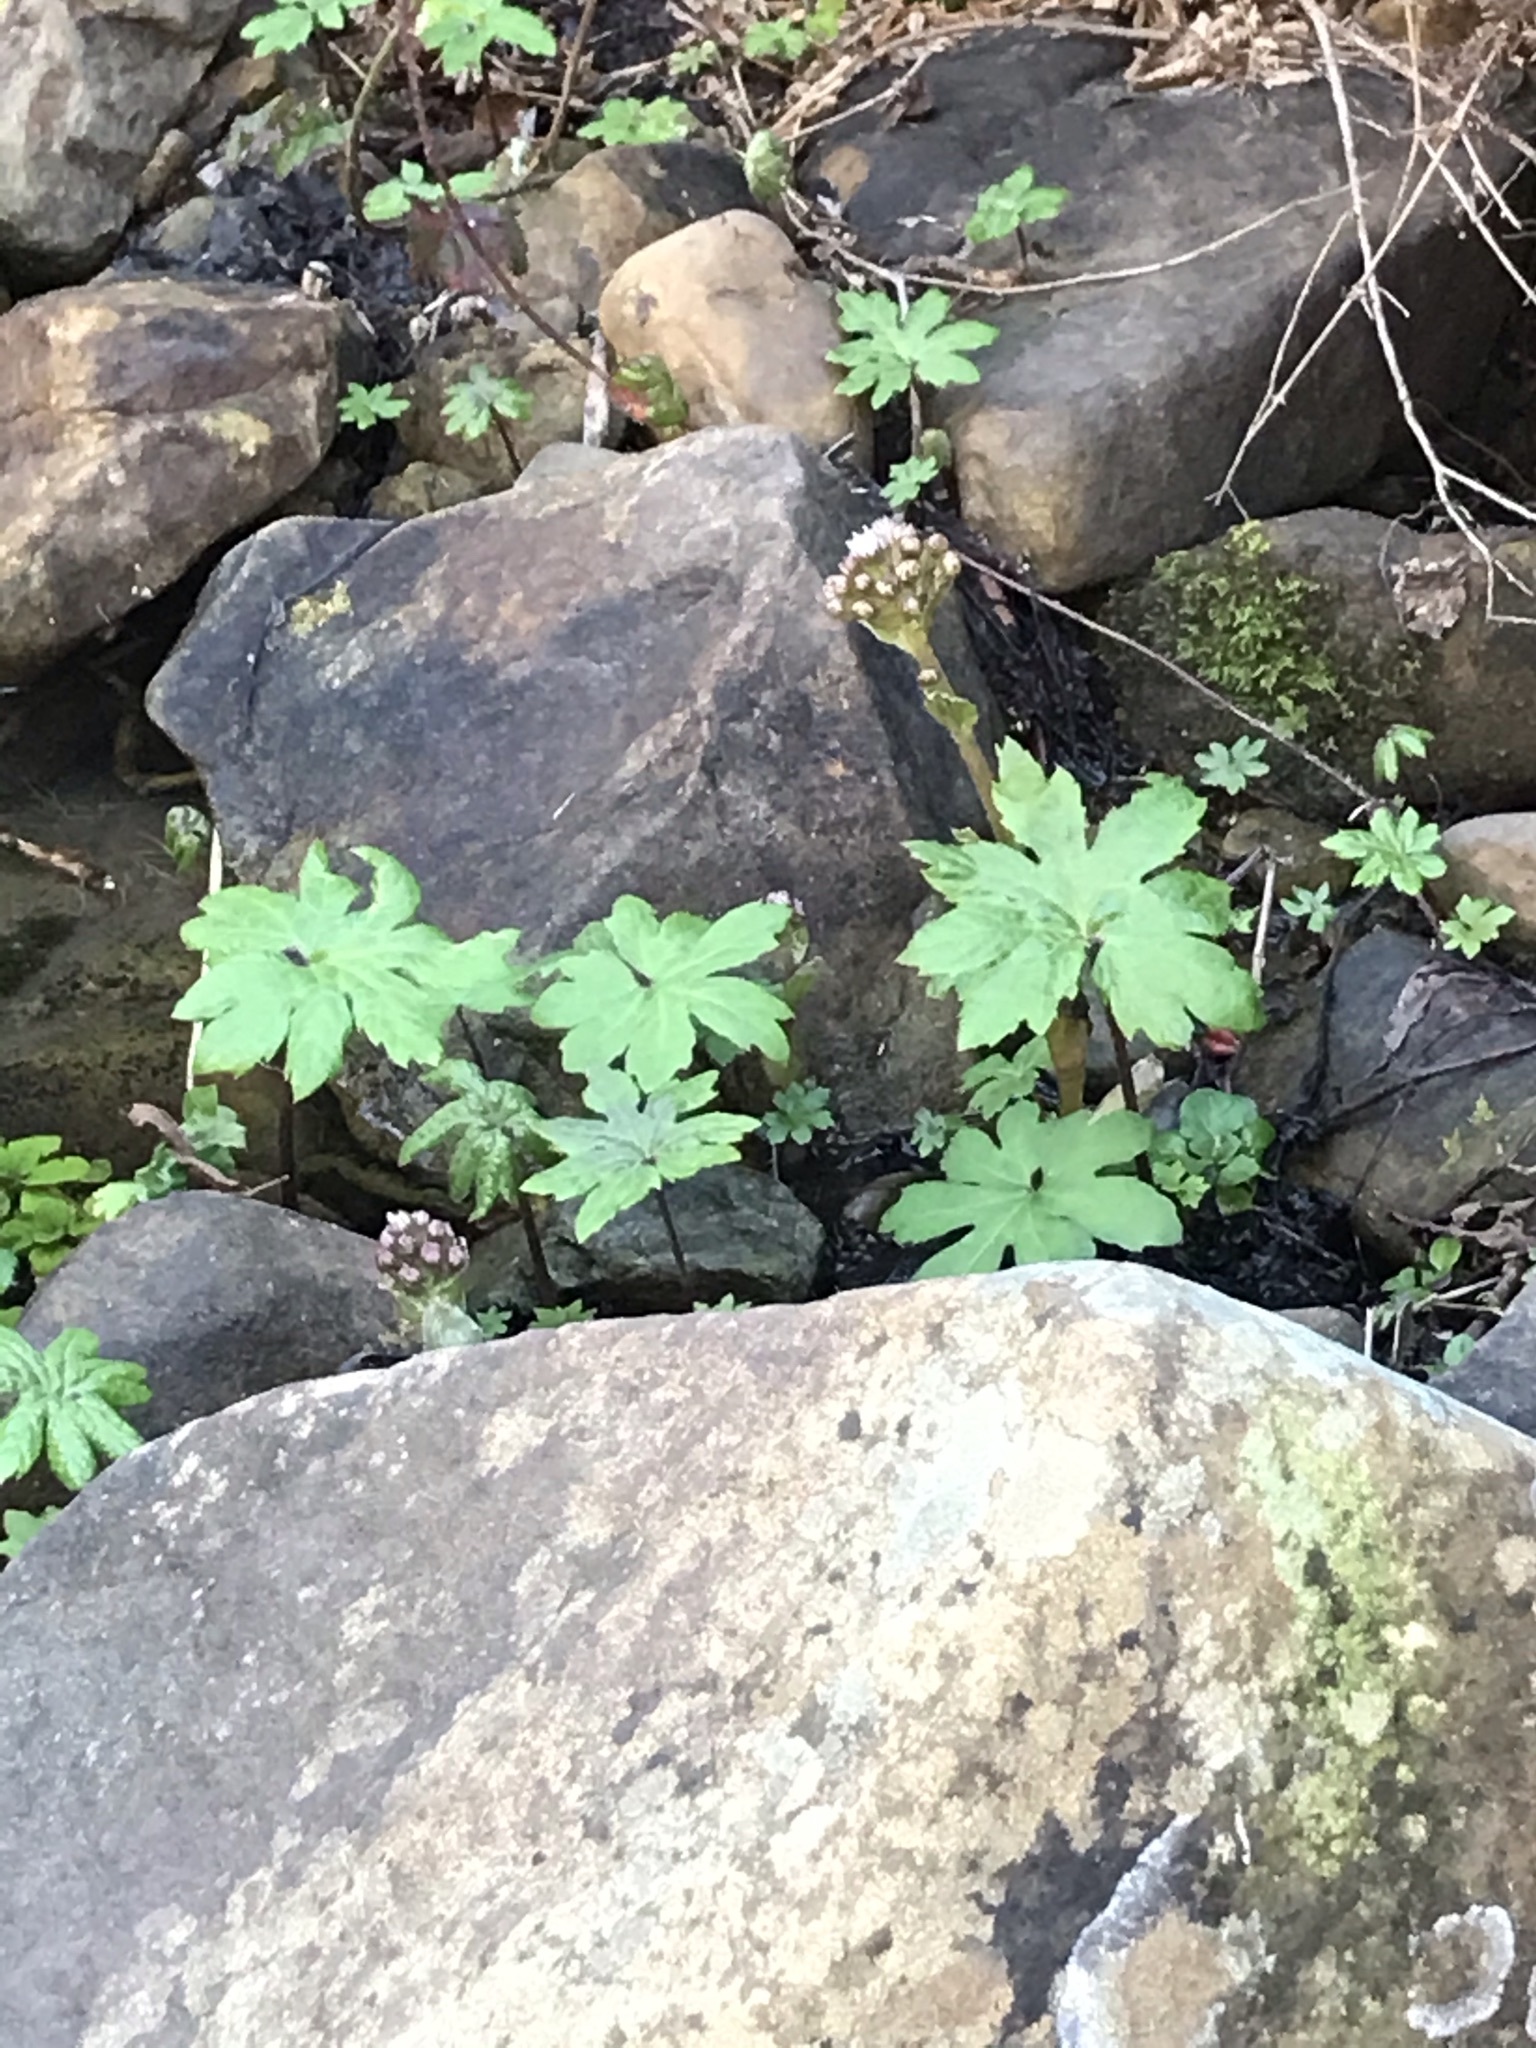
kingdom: Plantae
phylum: Tracheophyta
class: Magnoliopsida
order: Asterales
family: Asteraceae
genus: Petasites
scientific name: Petasites frigidus
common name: Arctic butterbur
